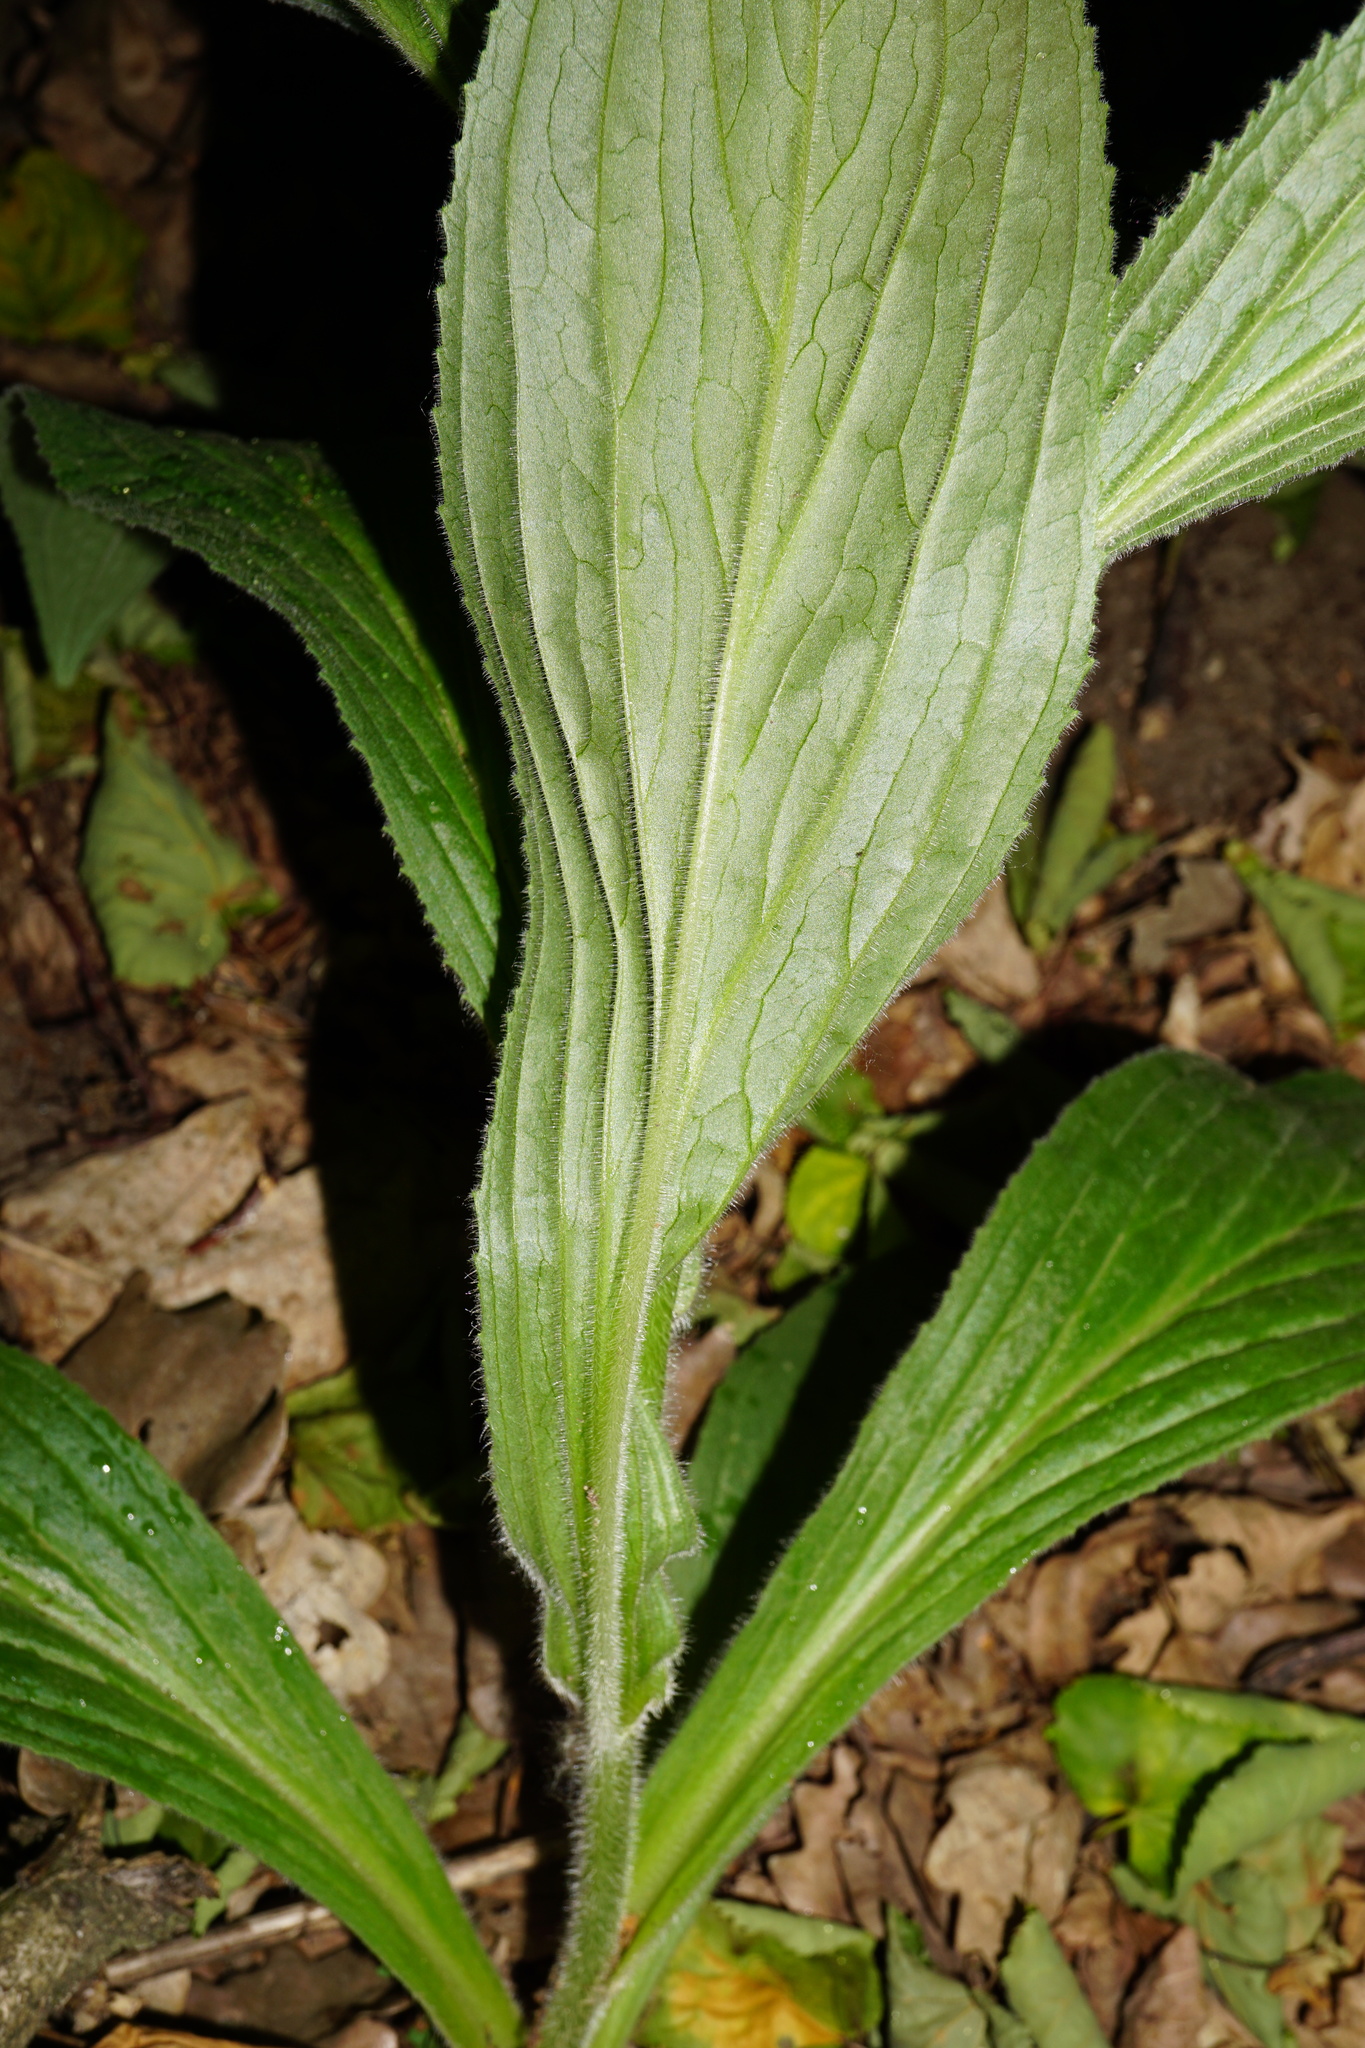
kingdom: Plantae
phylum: Tracheophyta
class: Magnoliopsida
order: Lamiales
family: Plantaginaceae
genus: Digitalis
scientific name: Digitalis grandiflora
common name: Yellow foxglove
